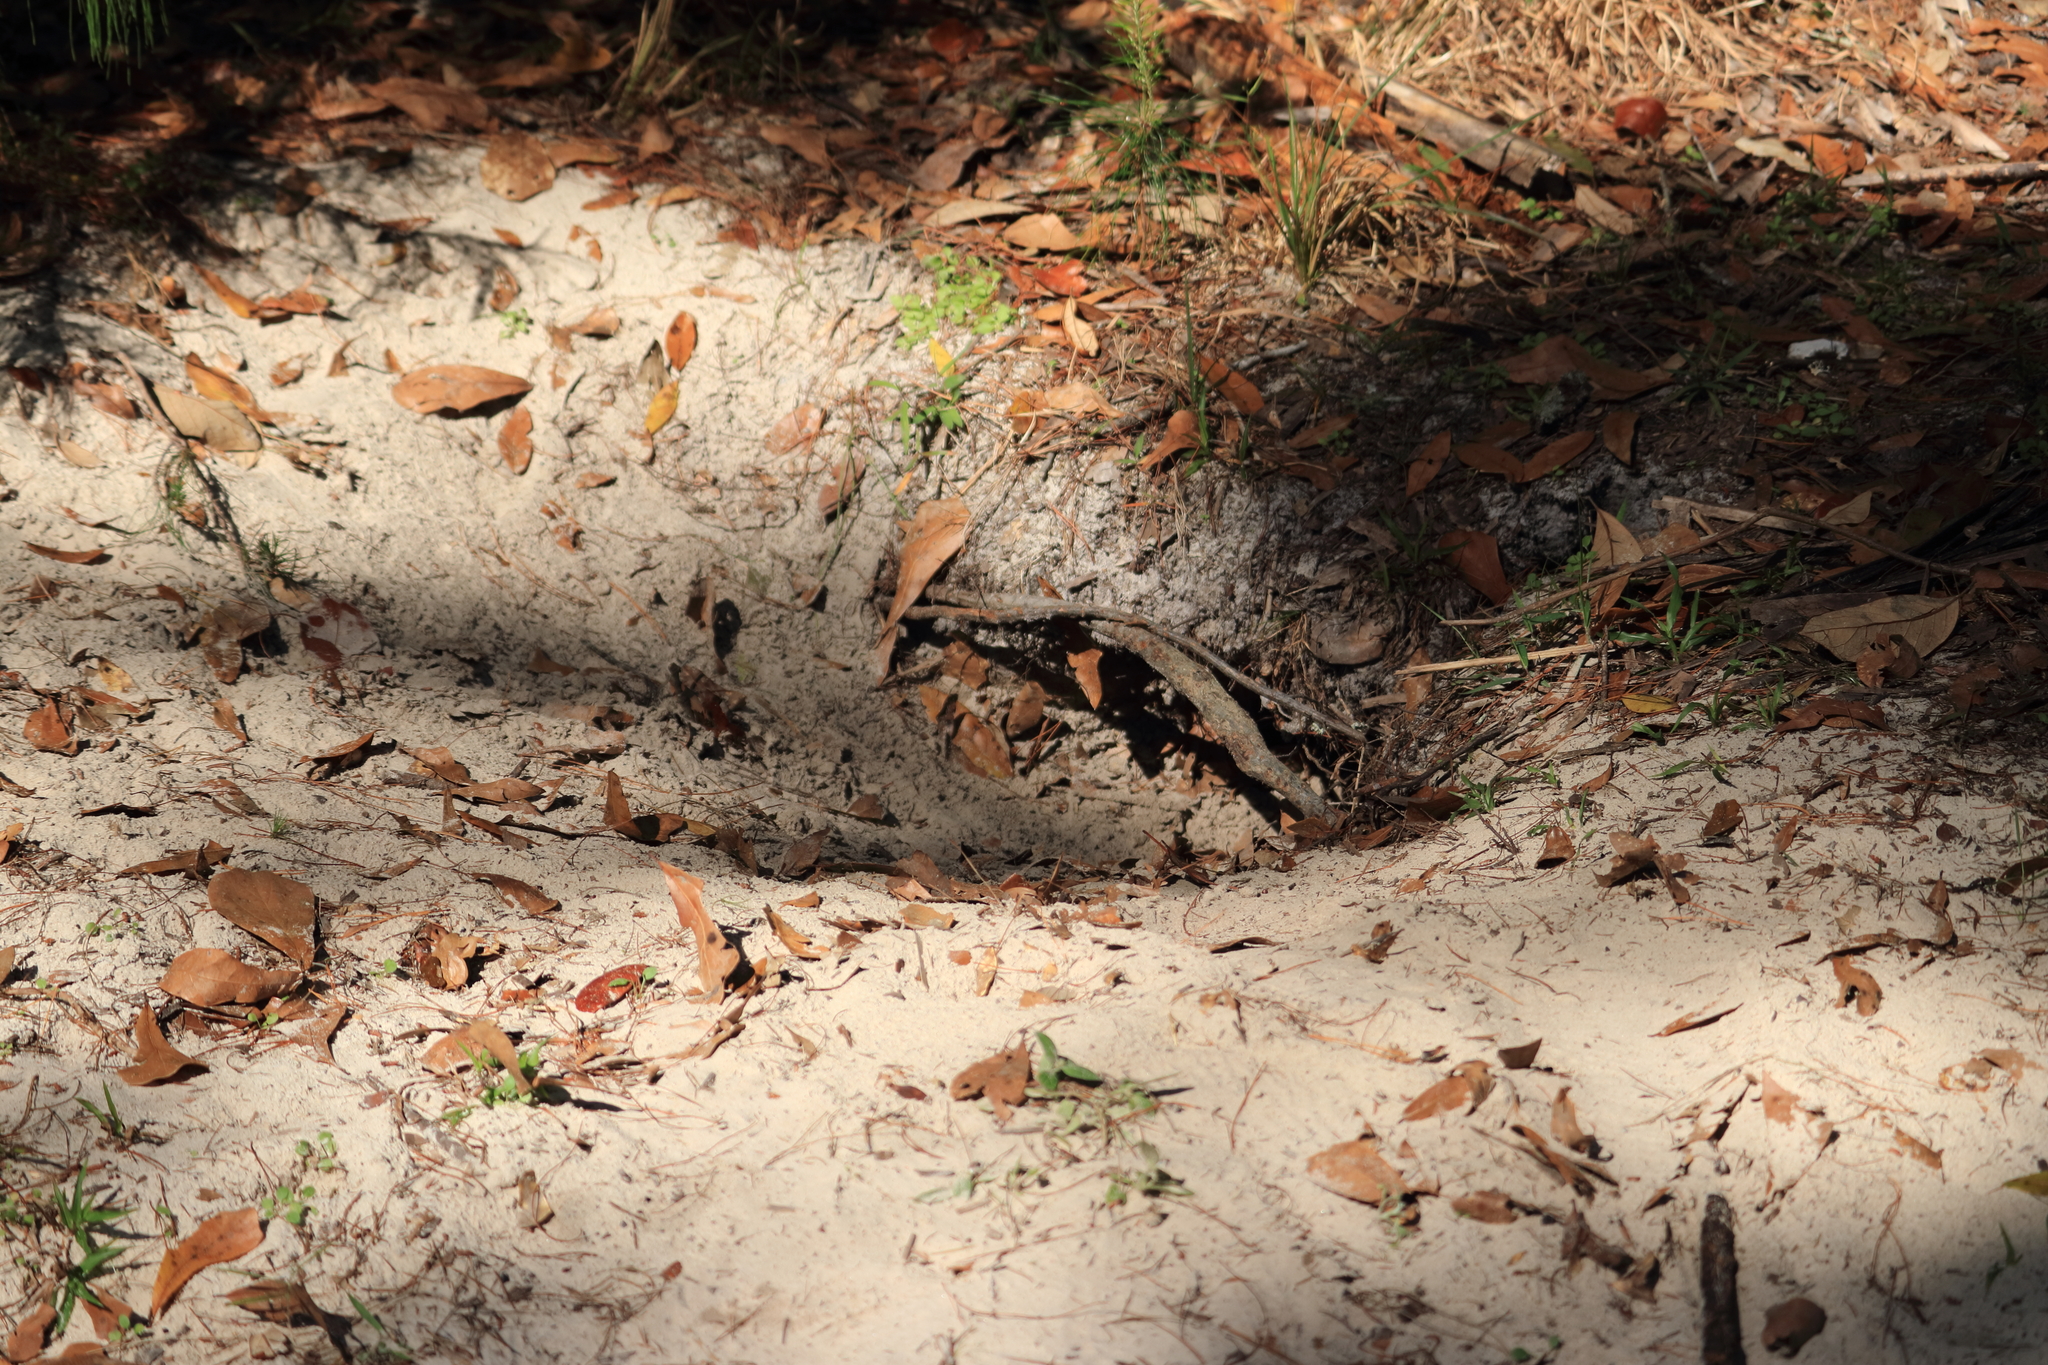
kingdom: Animalia
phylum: Chordata
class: Testudines
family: Testudinidae
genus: Gopherus
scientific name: Gopherus polyphemus
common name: Florida gopher tortoise
